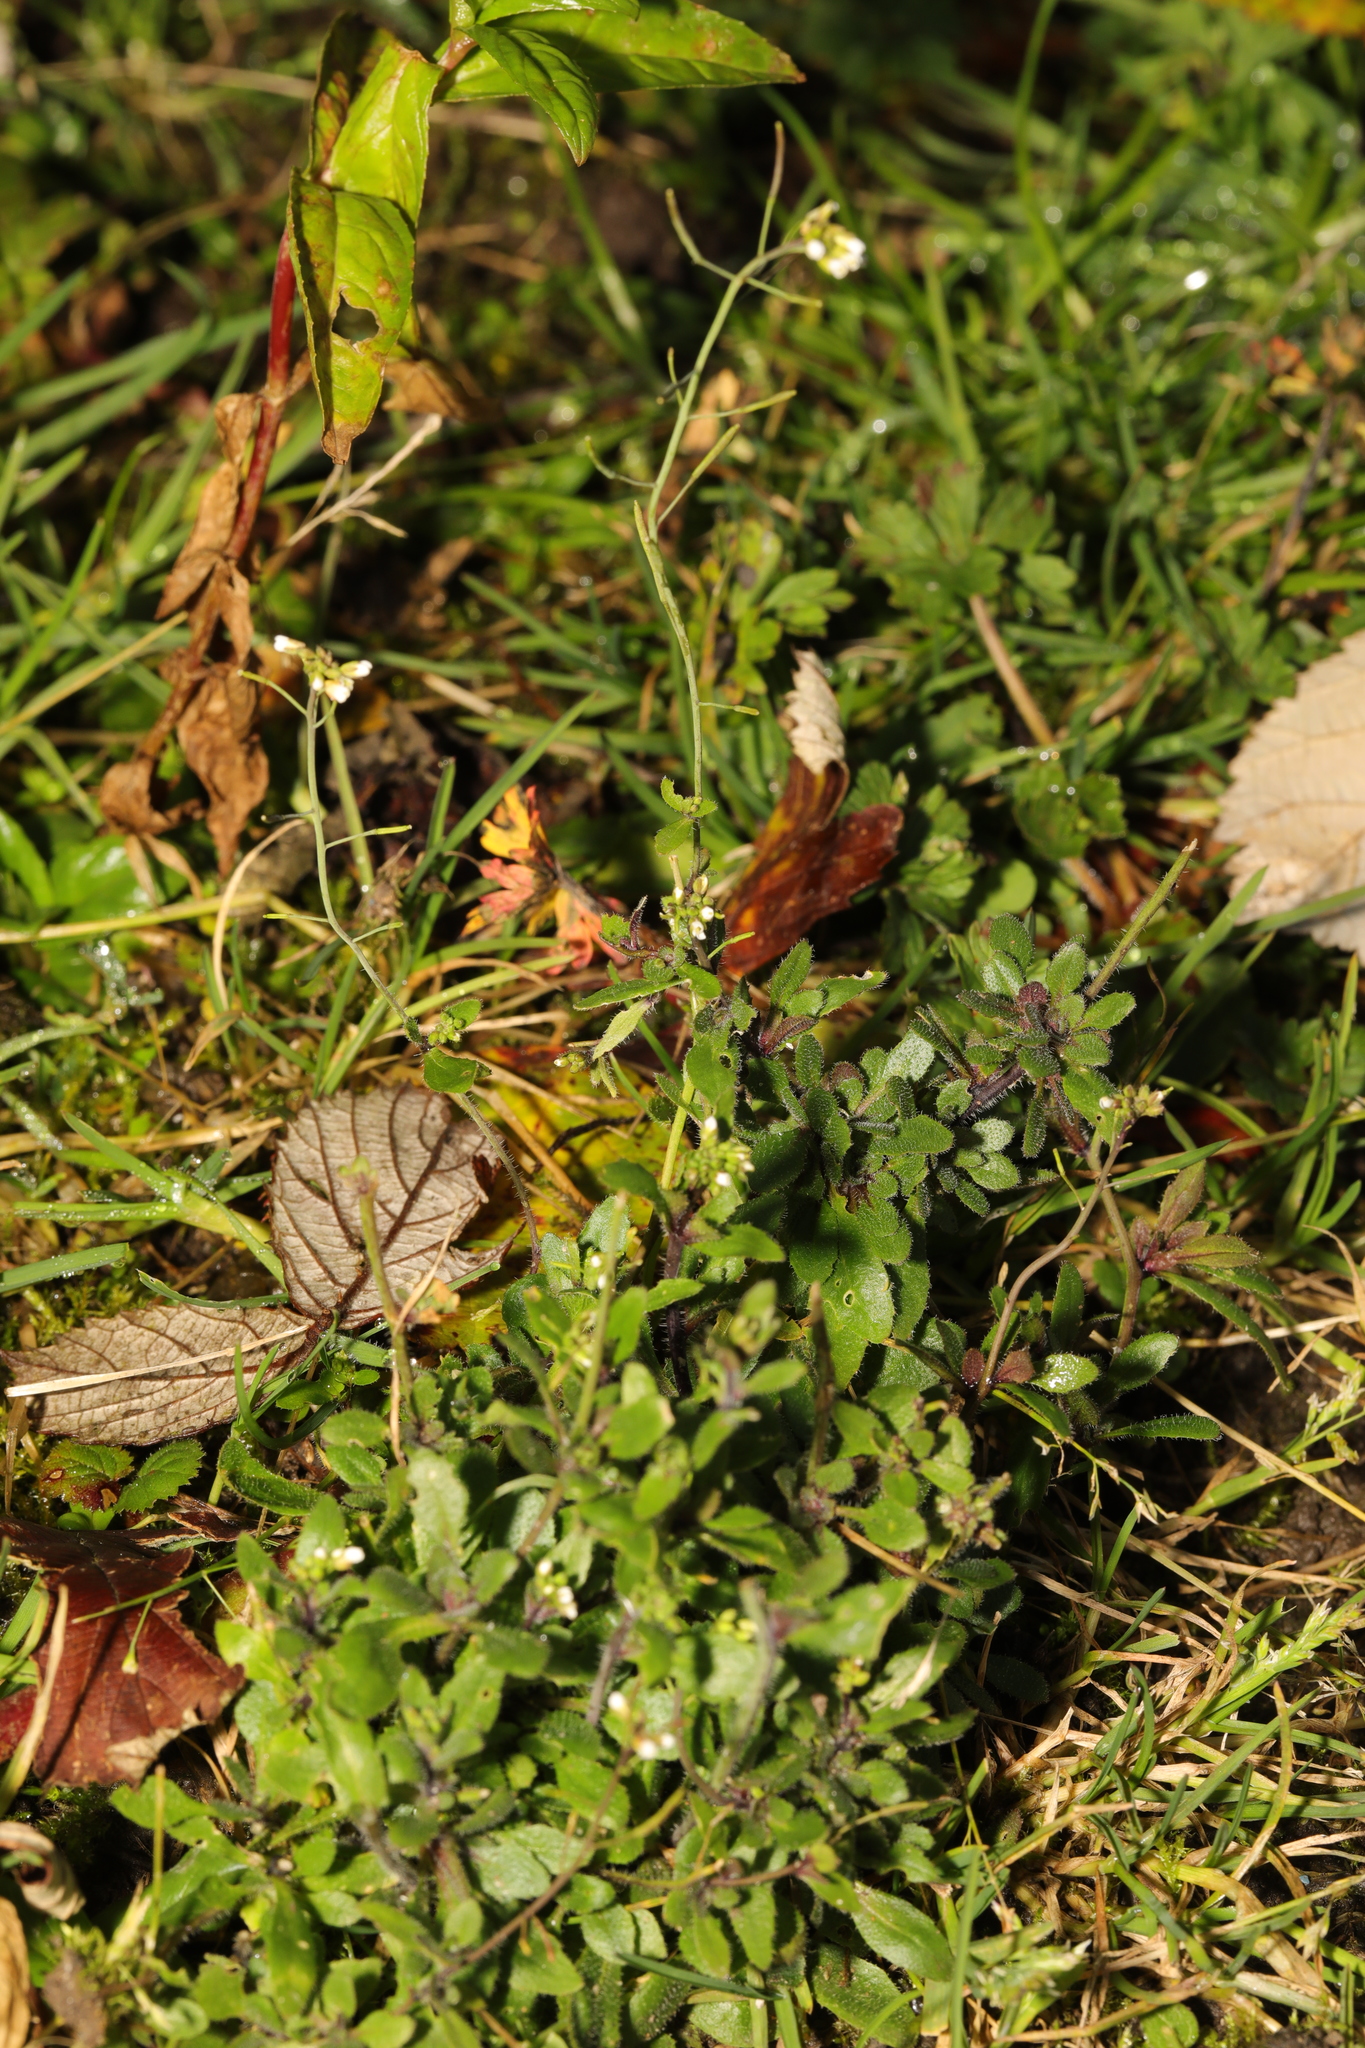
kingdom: Plantae
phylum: Tracheophyta
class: Magnoliopsida
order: Brassicales
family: Brassicaceae
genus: Arabidopsis
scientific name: Arabidopsis thaliana
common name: Thale cress
